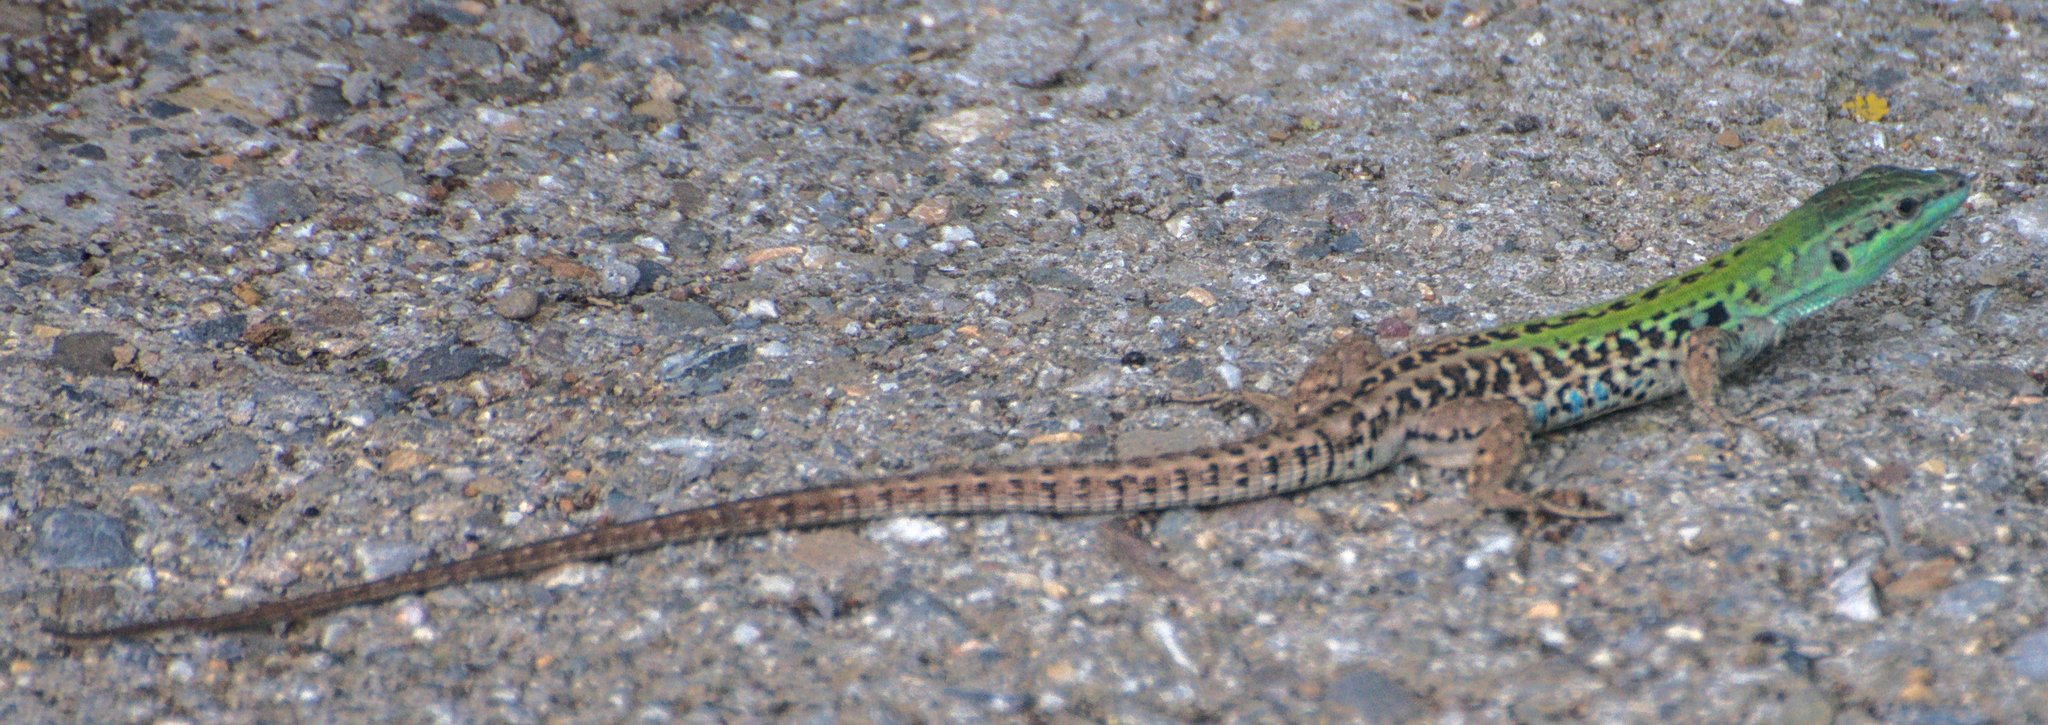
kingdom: Animalia
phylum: Chordata
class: Squamata
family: Lacertidae
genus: Podarcis
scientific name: Podarcis siculus
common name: Italian wall lizard
